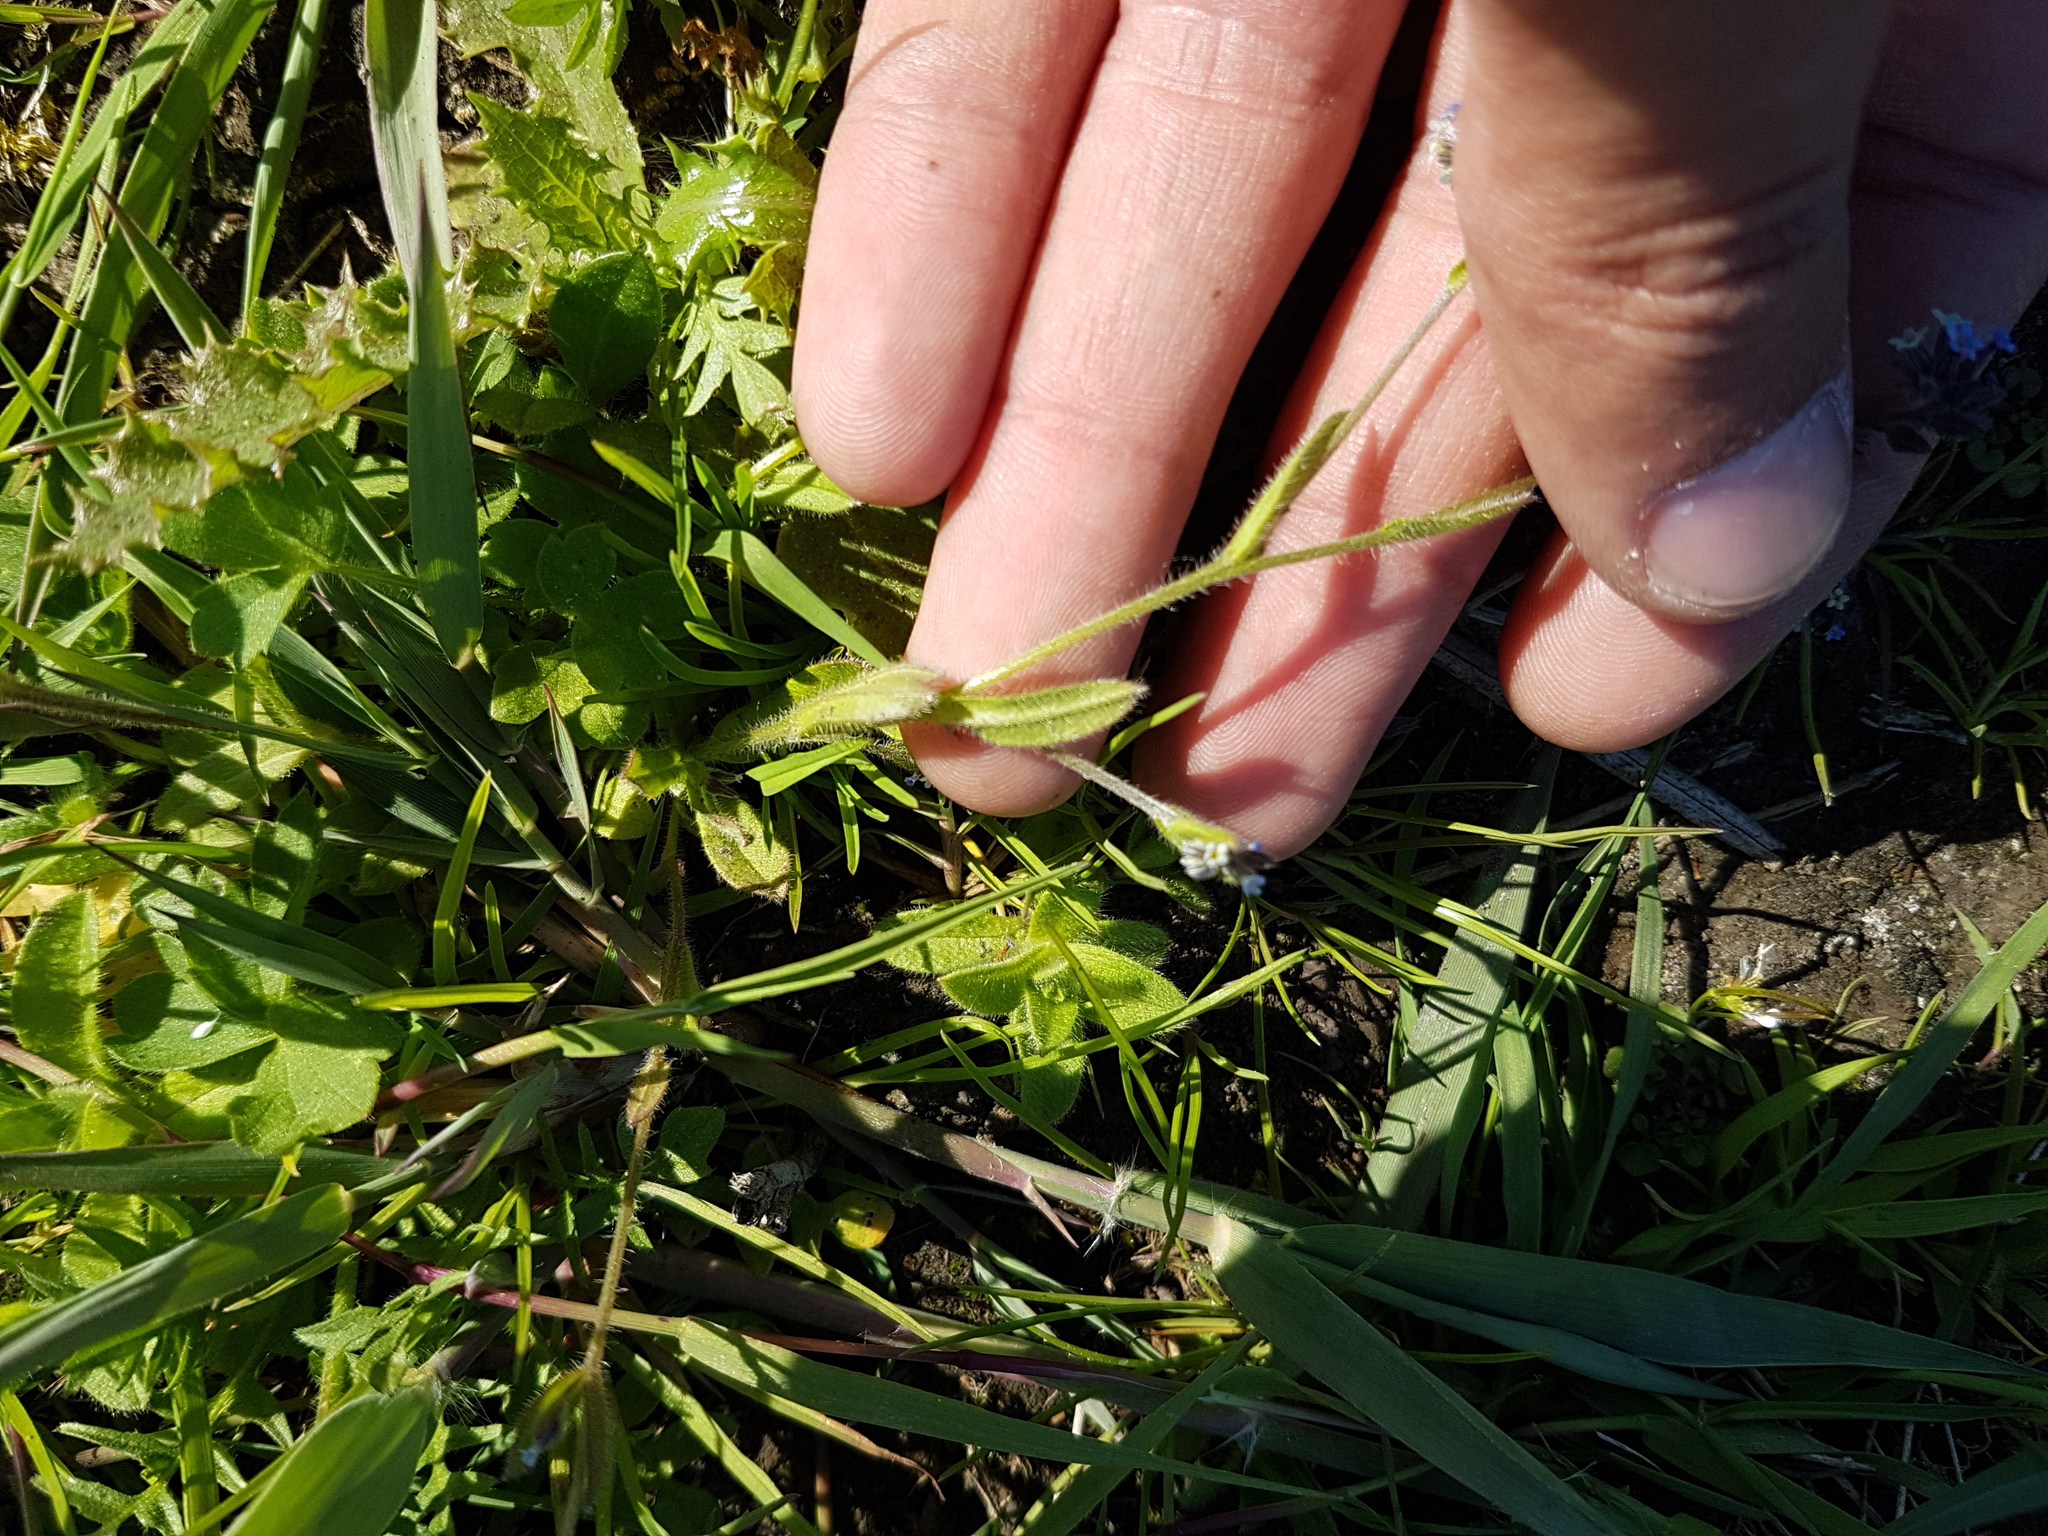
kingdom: Plantae
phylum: Tracheophyta
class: Magnoliopsida
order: Boraginales
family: Boraginaceae
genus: Myosotis
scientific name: Myosotis discolor
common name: Changing forget-me-not
